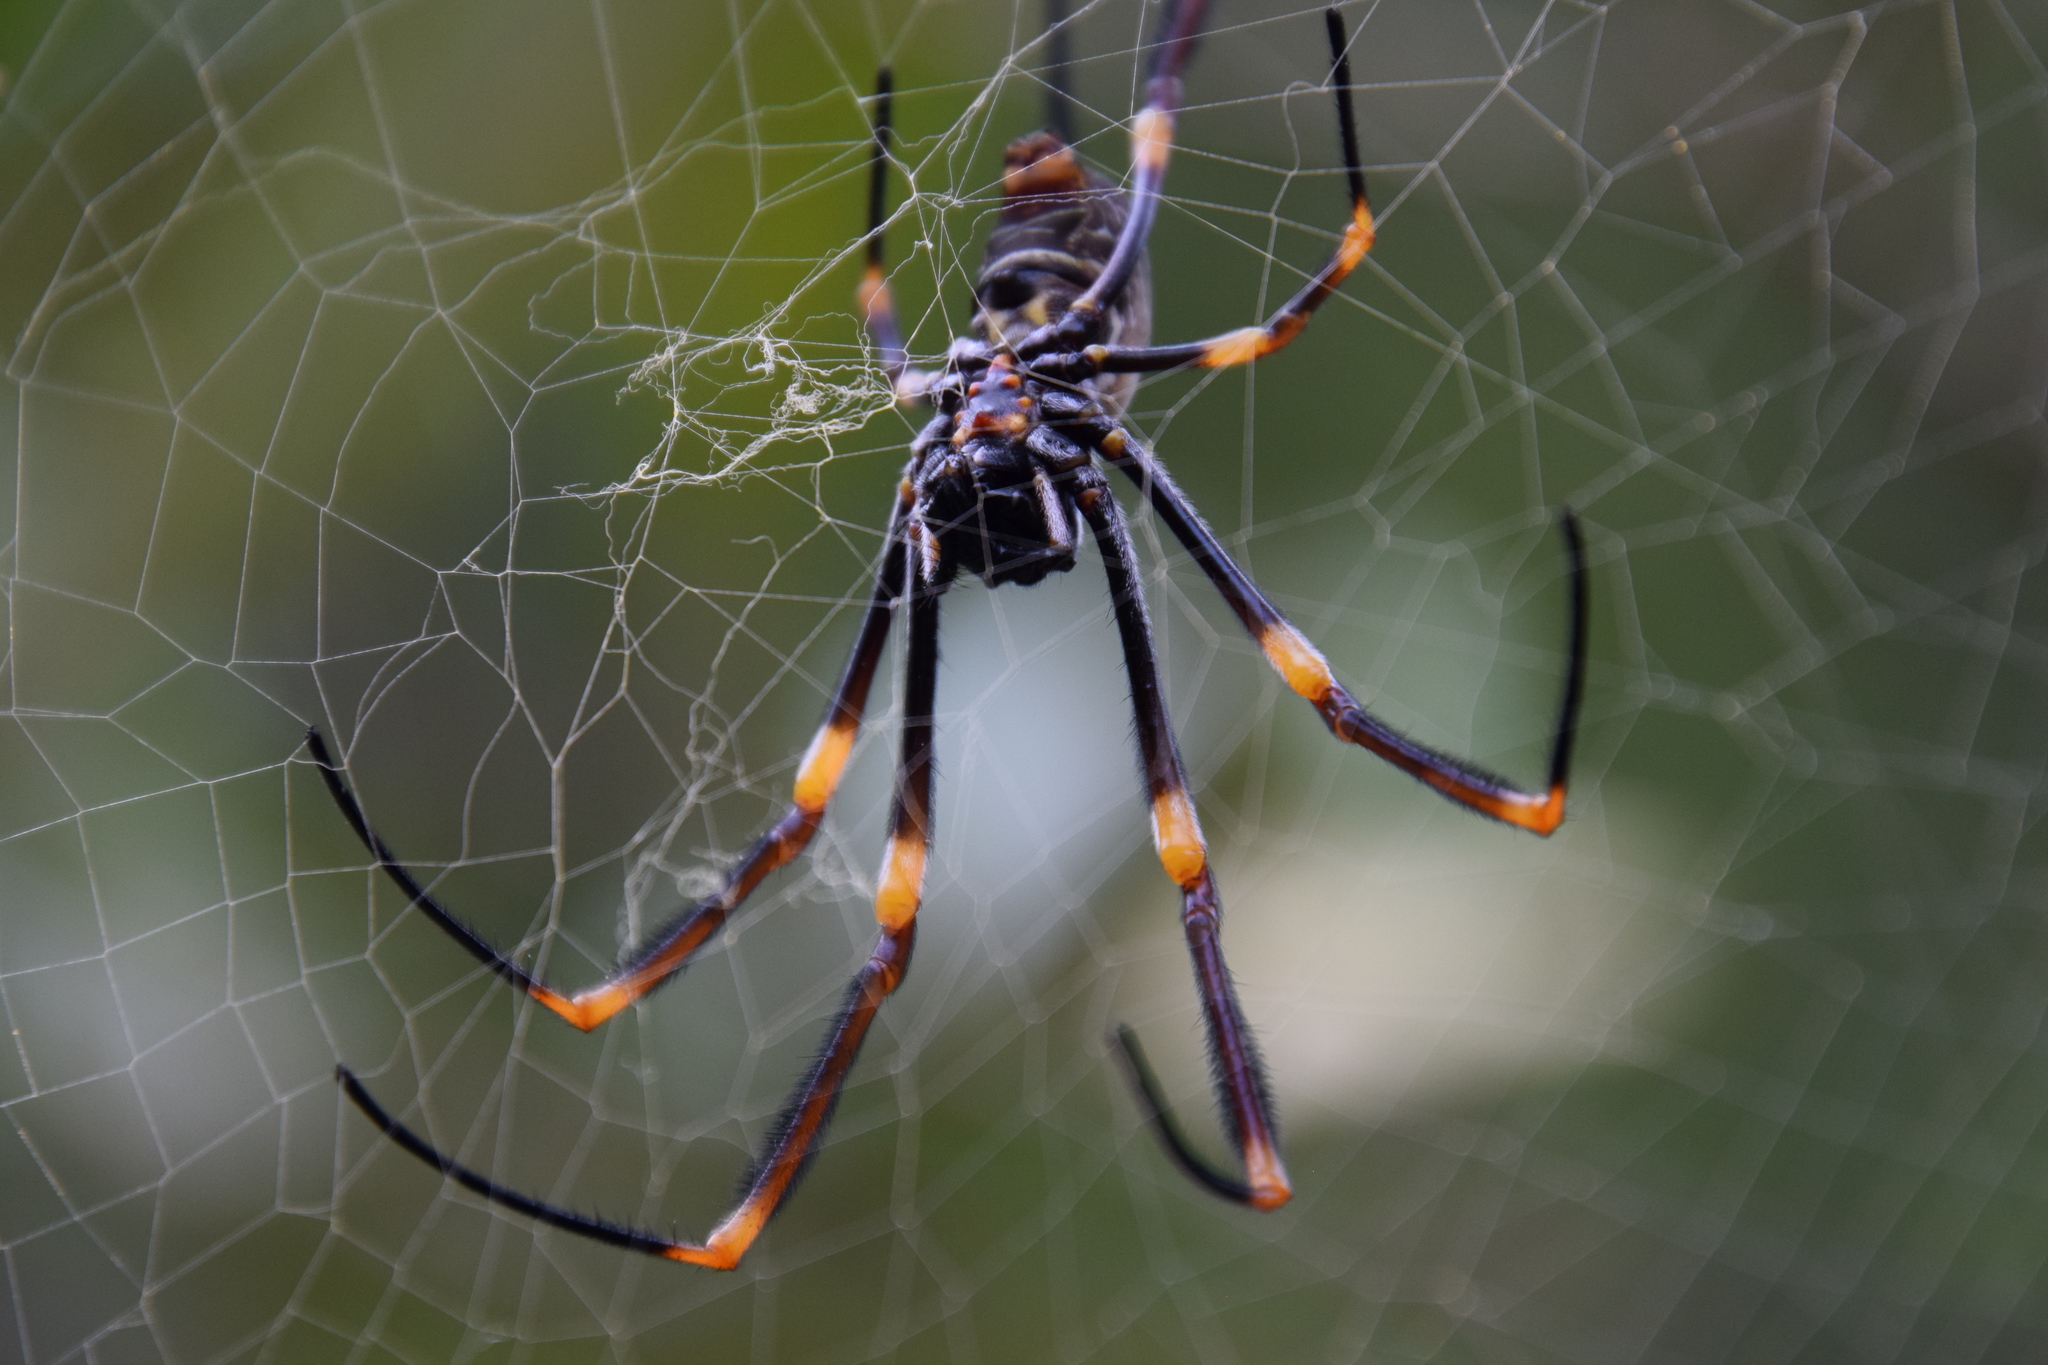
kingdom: Animalia
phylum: Arthropoda
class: Arachnida
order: Araneae
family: Araneidae
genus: Trichonephila
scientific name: Trichonephila plumipes
